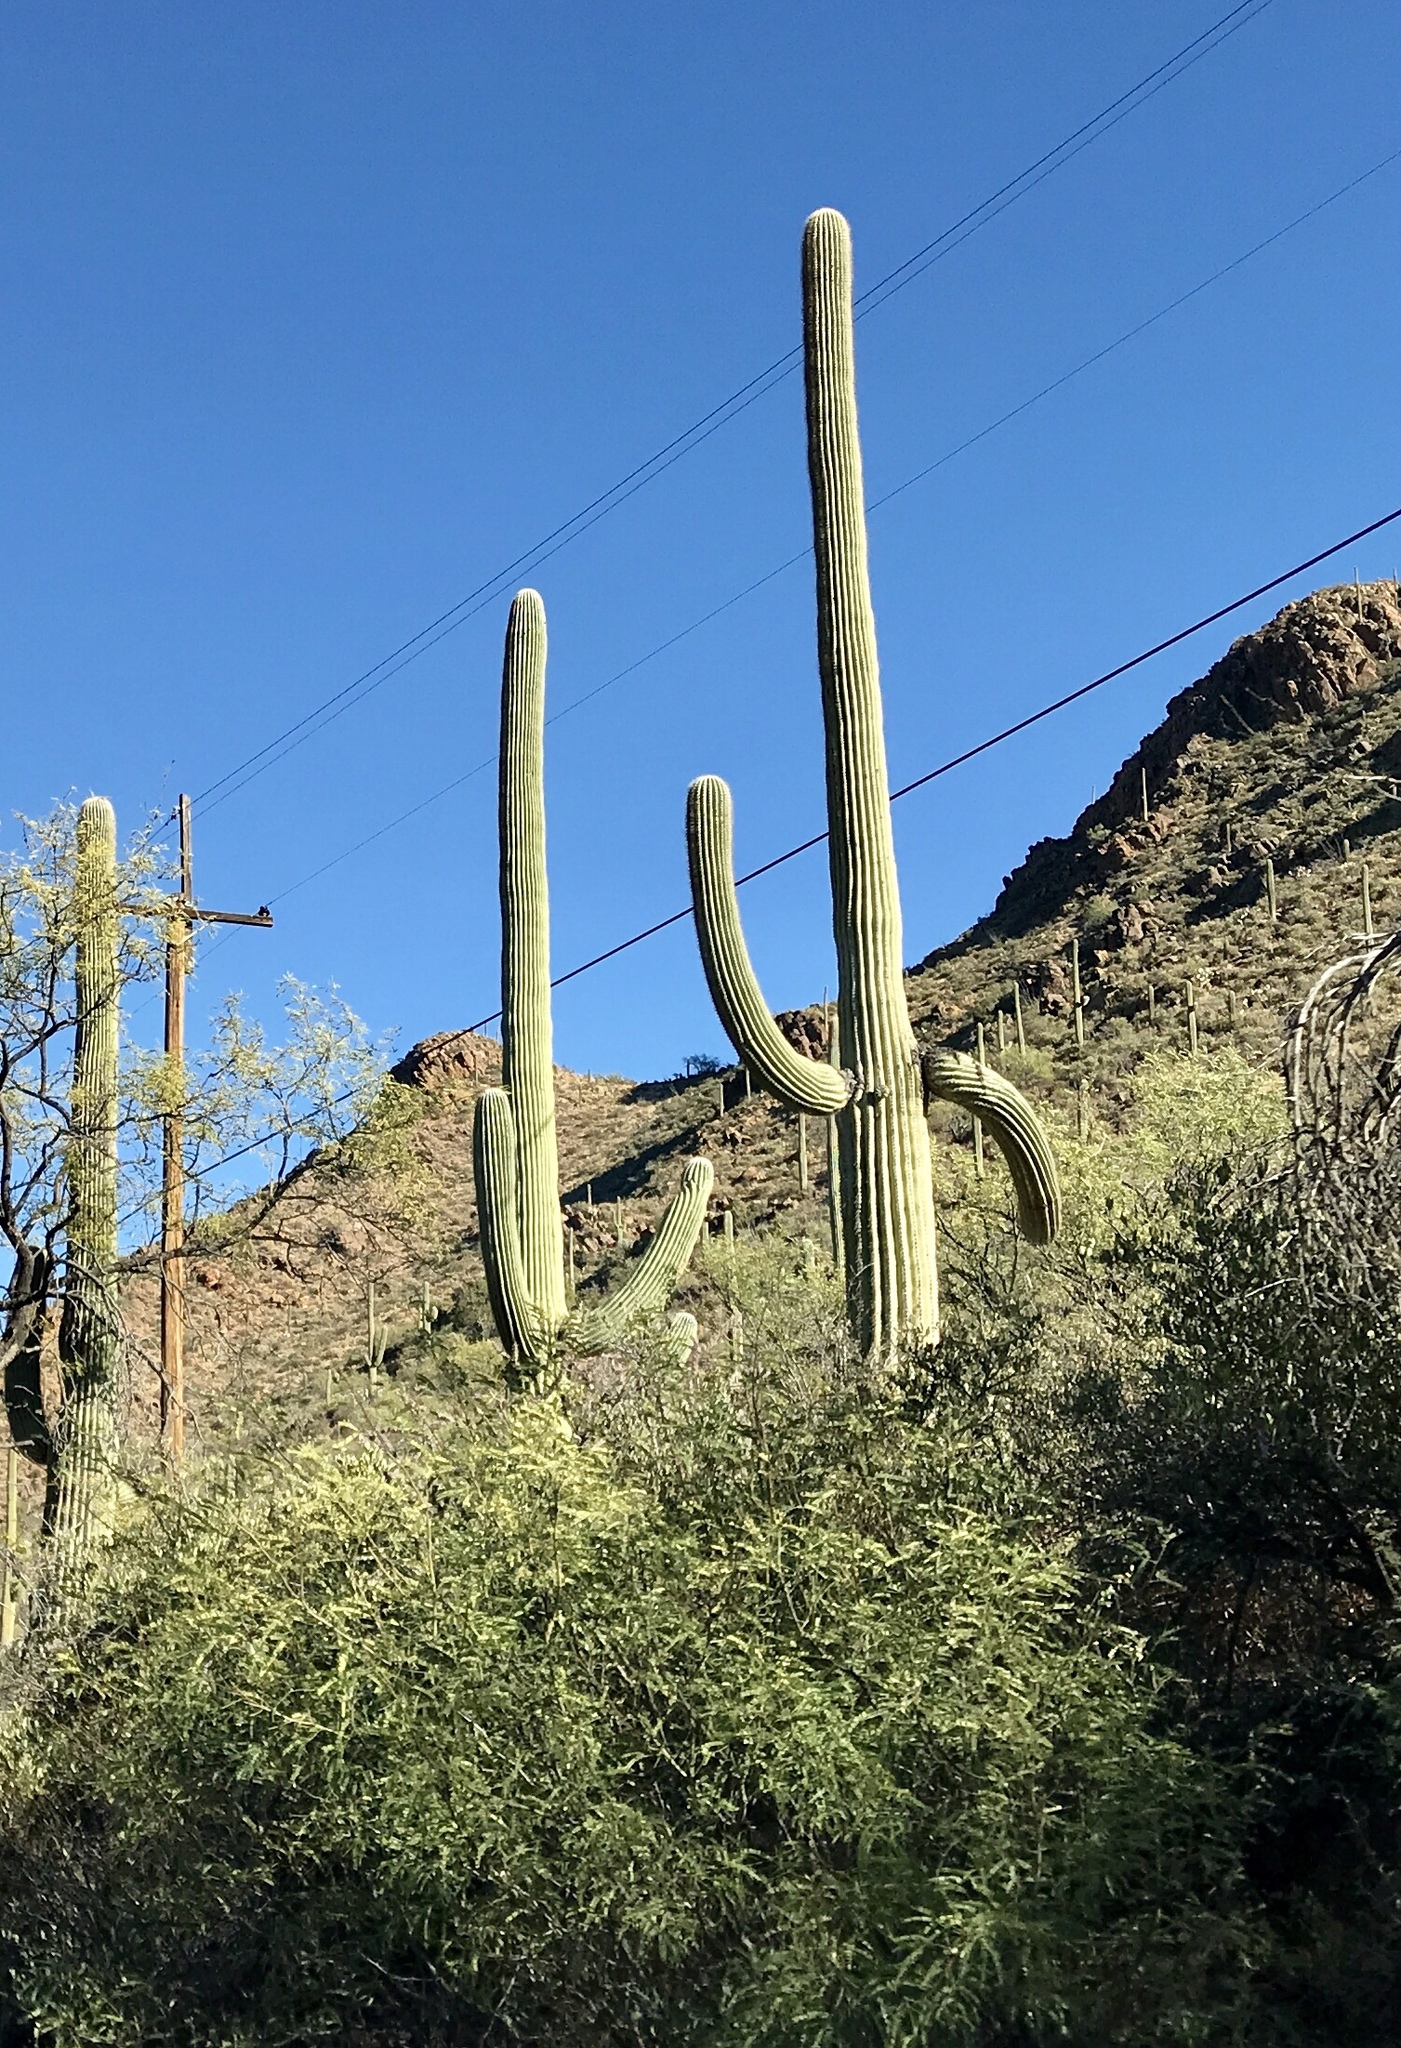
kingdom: Plantae
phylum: Tracheophyta
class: Magnoliopsida
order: Caryophyllales
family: Cactaceae
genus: Carnegiea
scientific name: Carnegiea gigantea
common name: Saguaro
